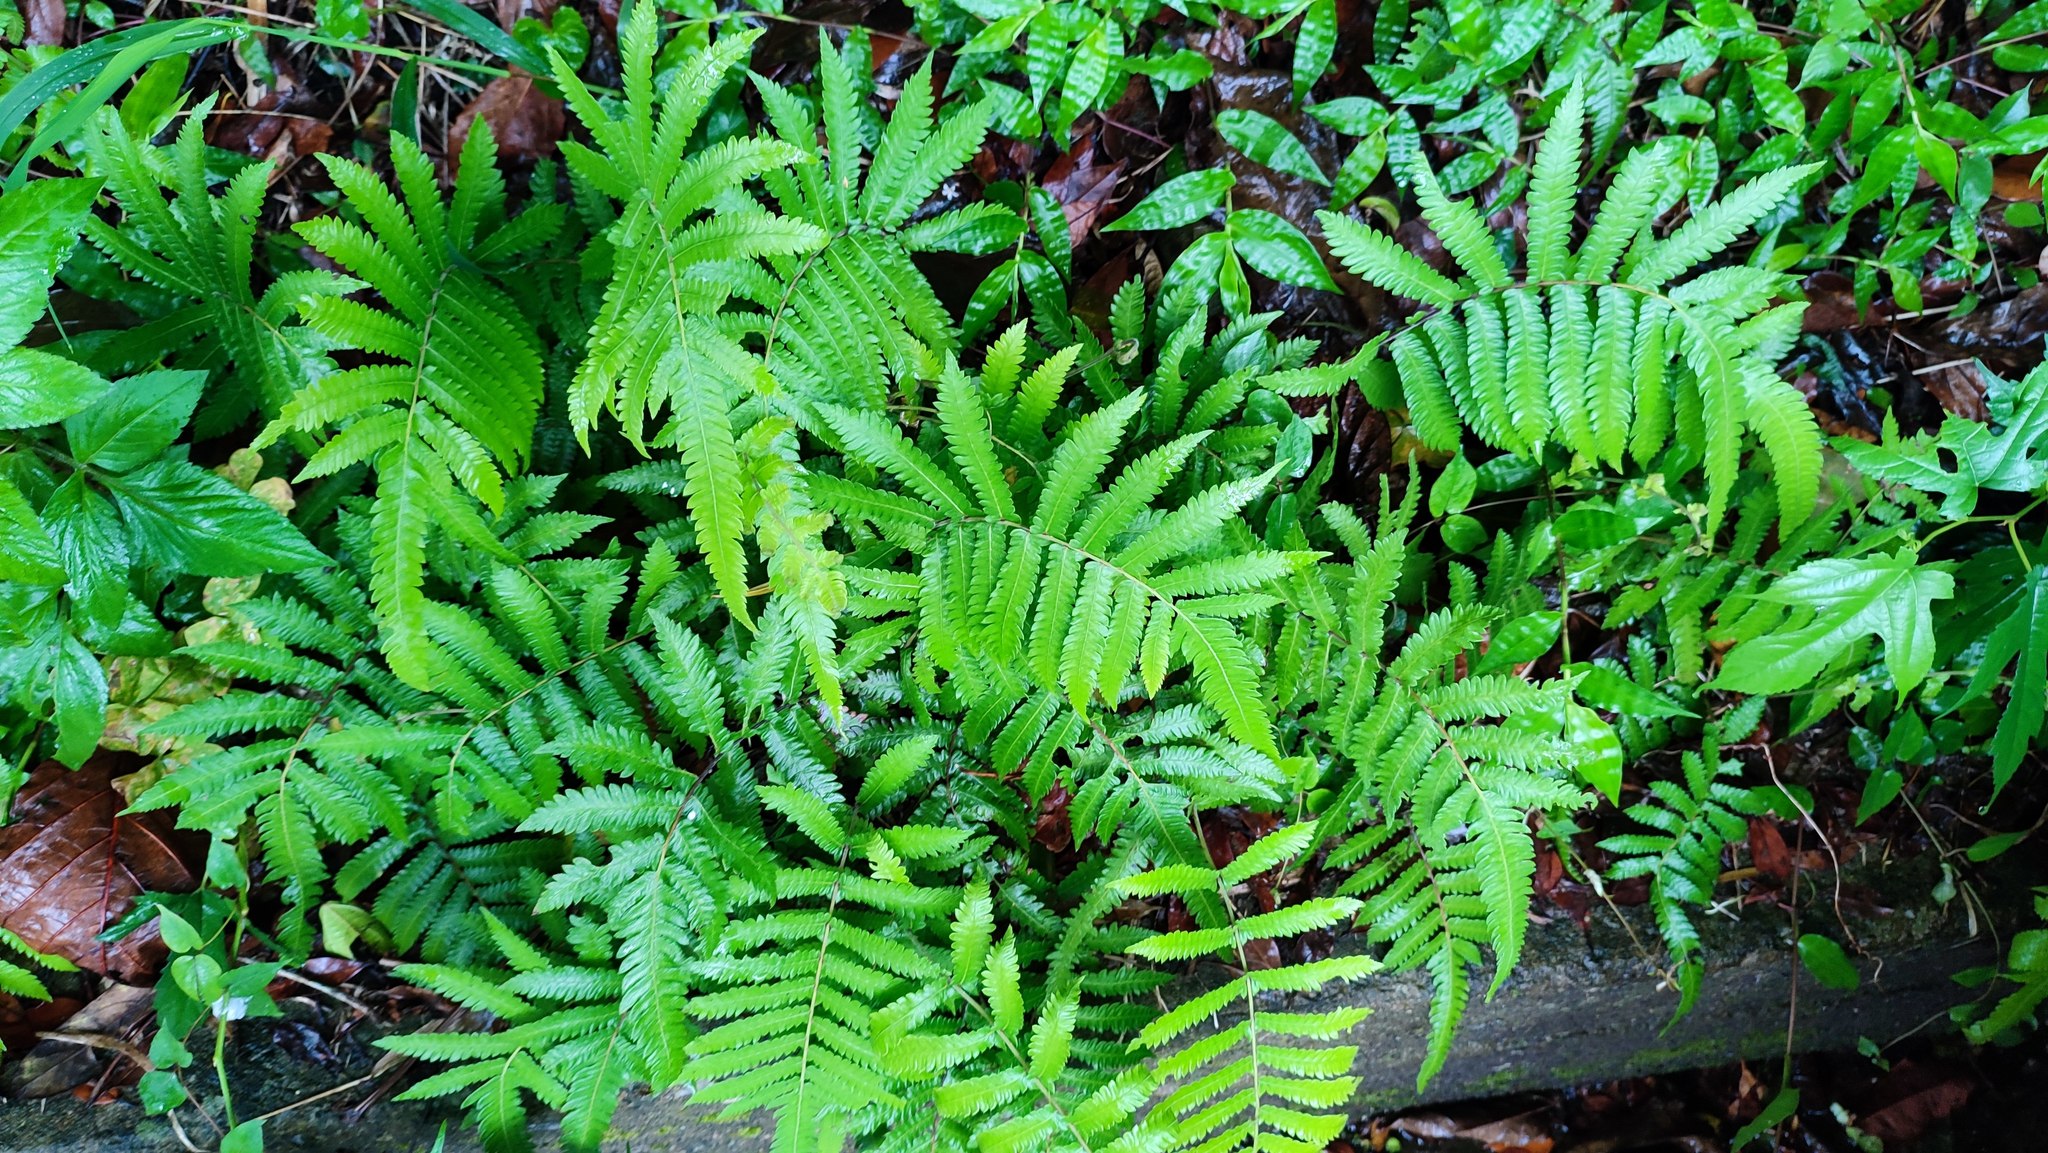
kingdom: Plantae
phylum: Tracheophyta
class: Polypodiopsida
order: Polypodiales
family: Thelypteridaceae
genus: Christella
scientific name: Christella acuminata
